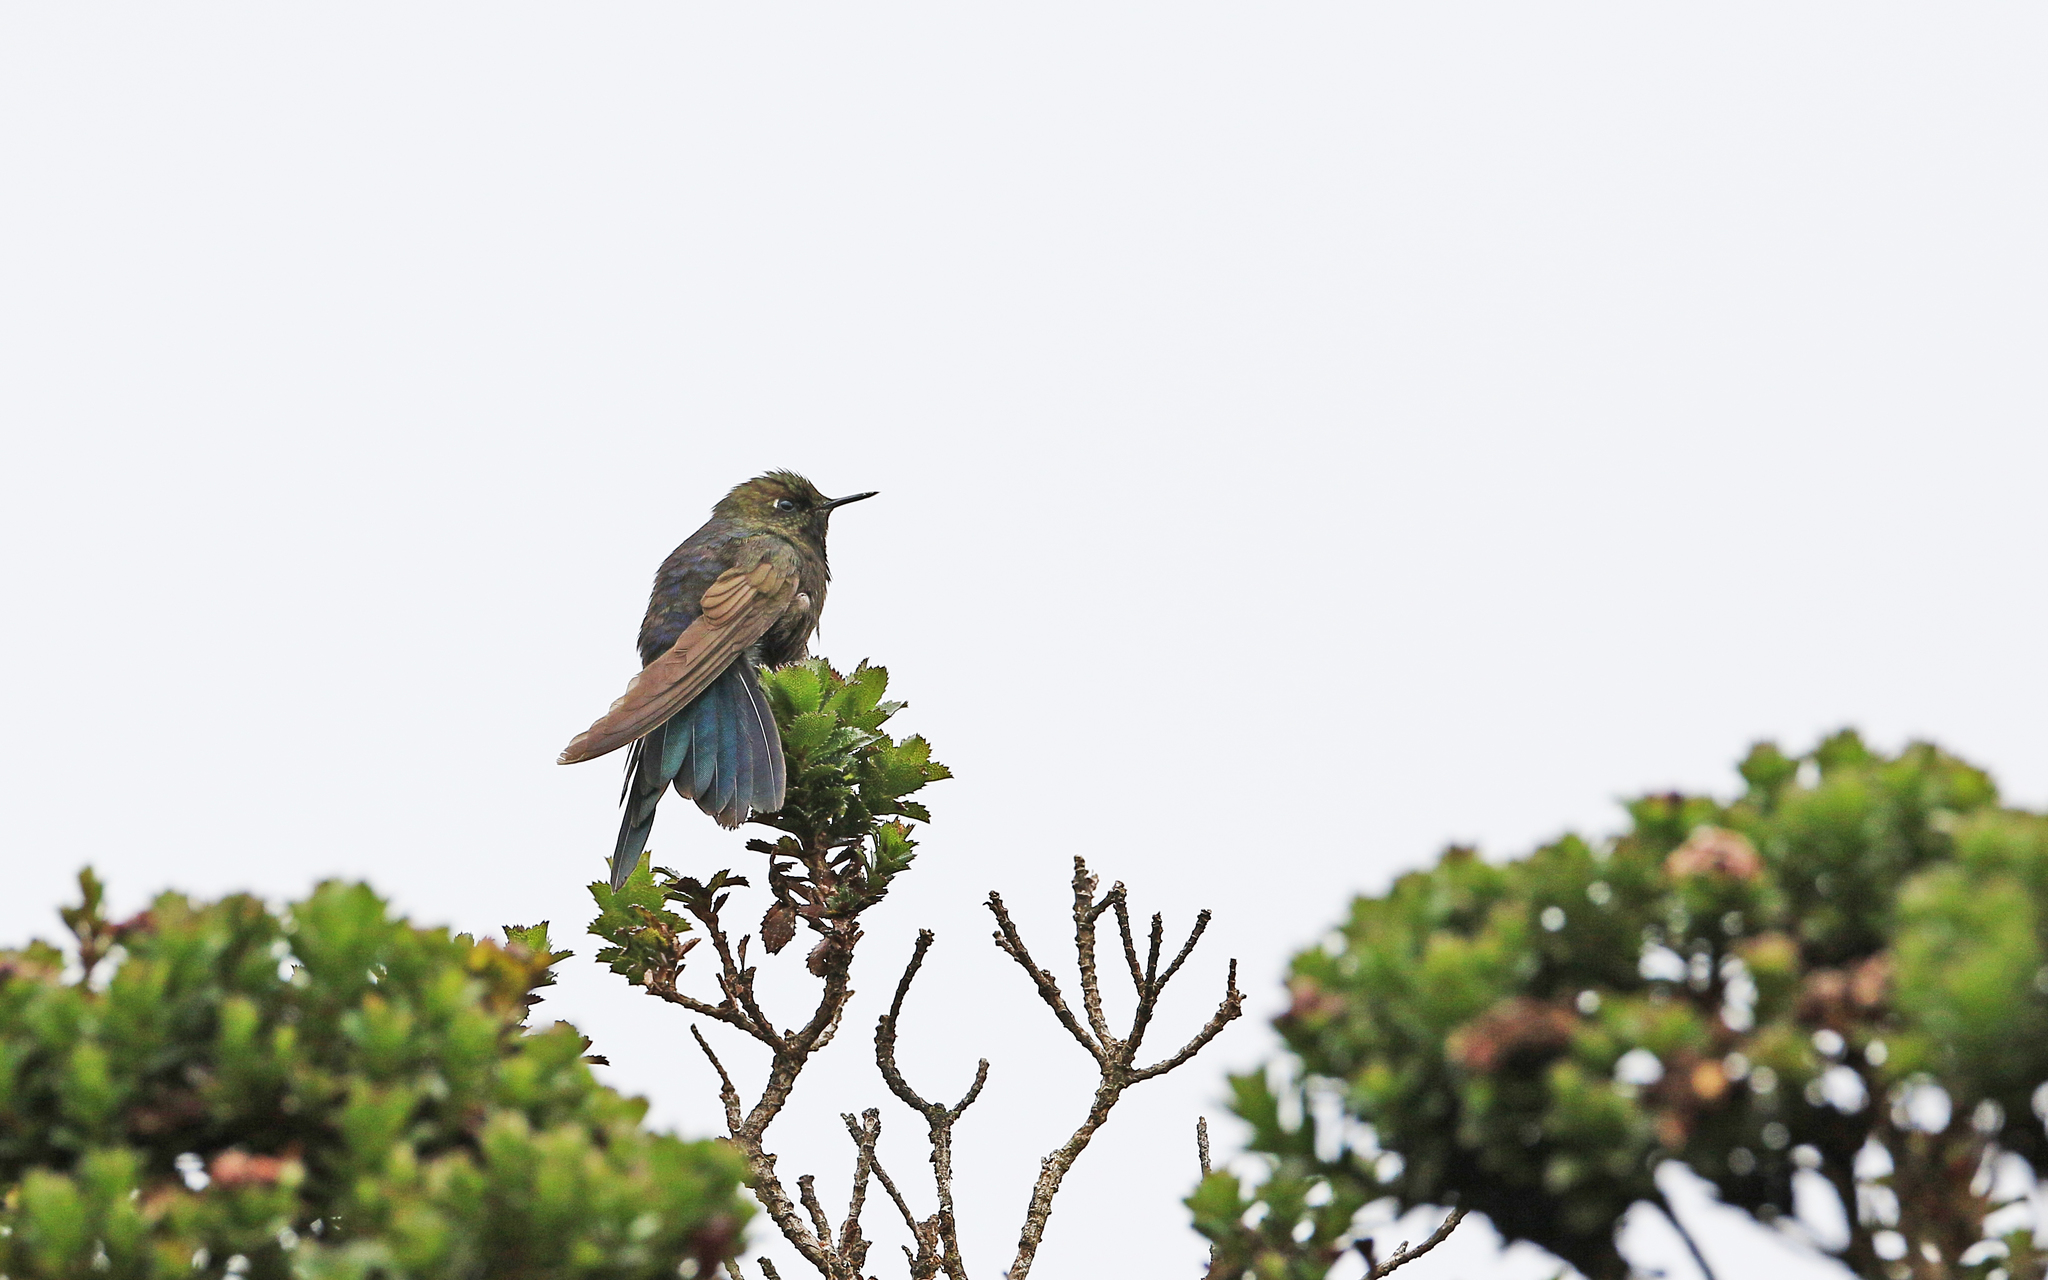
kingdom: Animalia
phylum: Chordata
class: Aves
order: Apodiformes
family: Trochilidae
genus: Chalcostigma
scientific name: Chalcostigma stanleyi
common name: Blue-mantled thornbill
